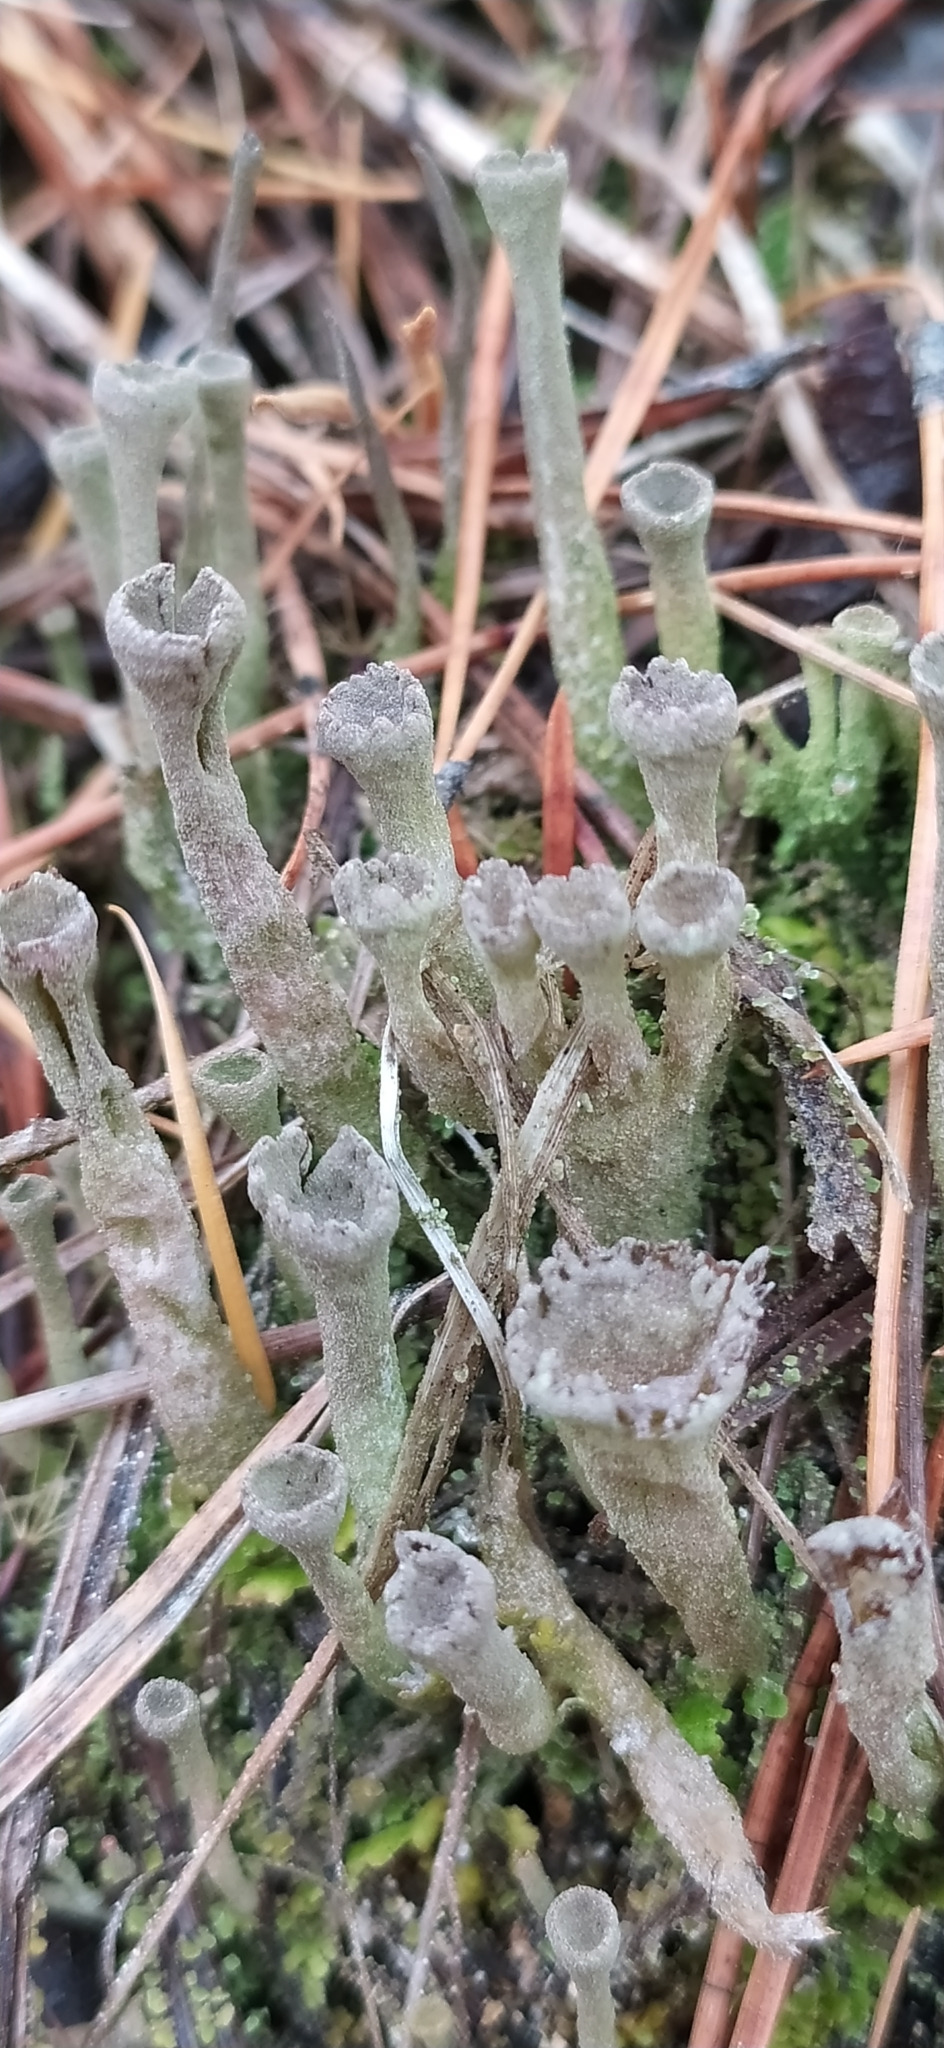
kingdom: Fungi
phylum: Ascomycota
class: Lecanoromycetes
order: Lecanorales
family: Cladoniaceae
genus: Cladonia
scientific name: Cladonia fimbriata
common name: Powdered trumpet lichen
